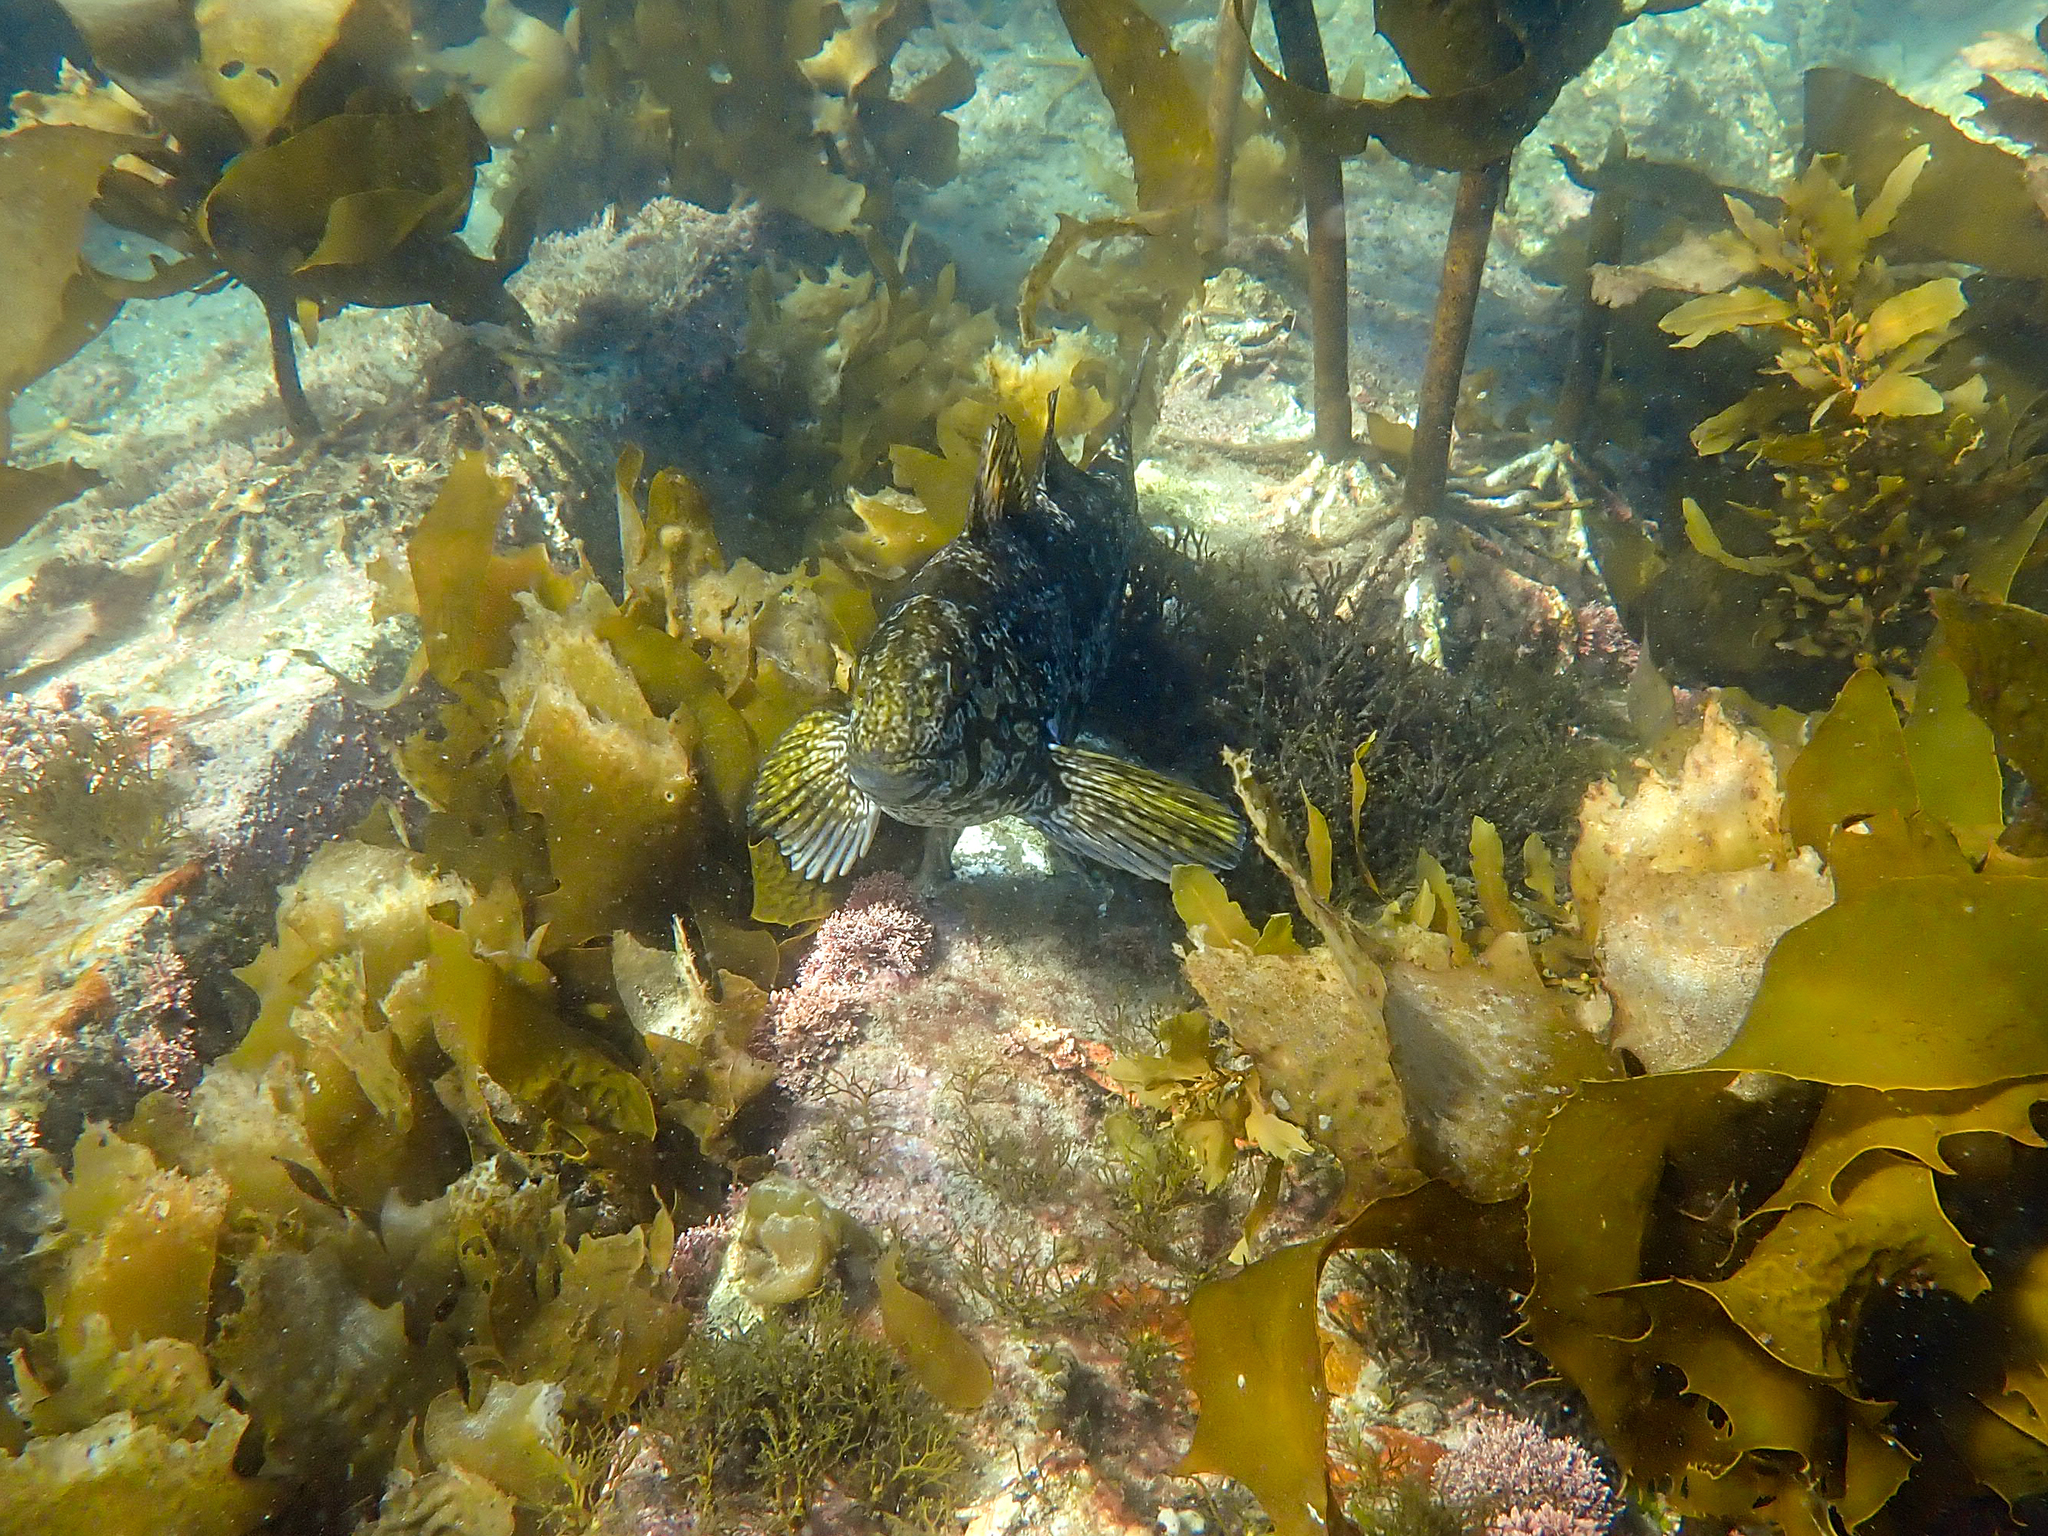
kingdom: Animalia
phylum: Chordata
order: Perciformes
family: Aplodactylidae
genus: Aplodactylus
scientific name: Aplodactylus arctidens
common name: Marblefish
